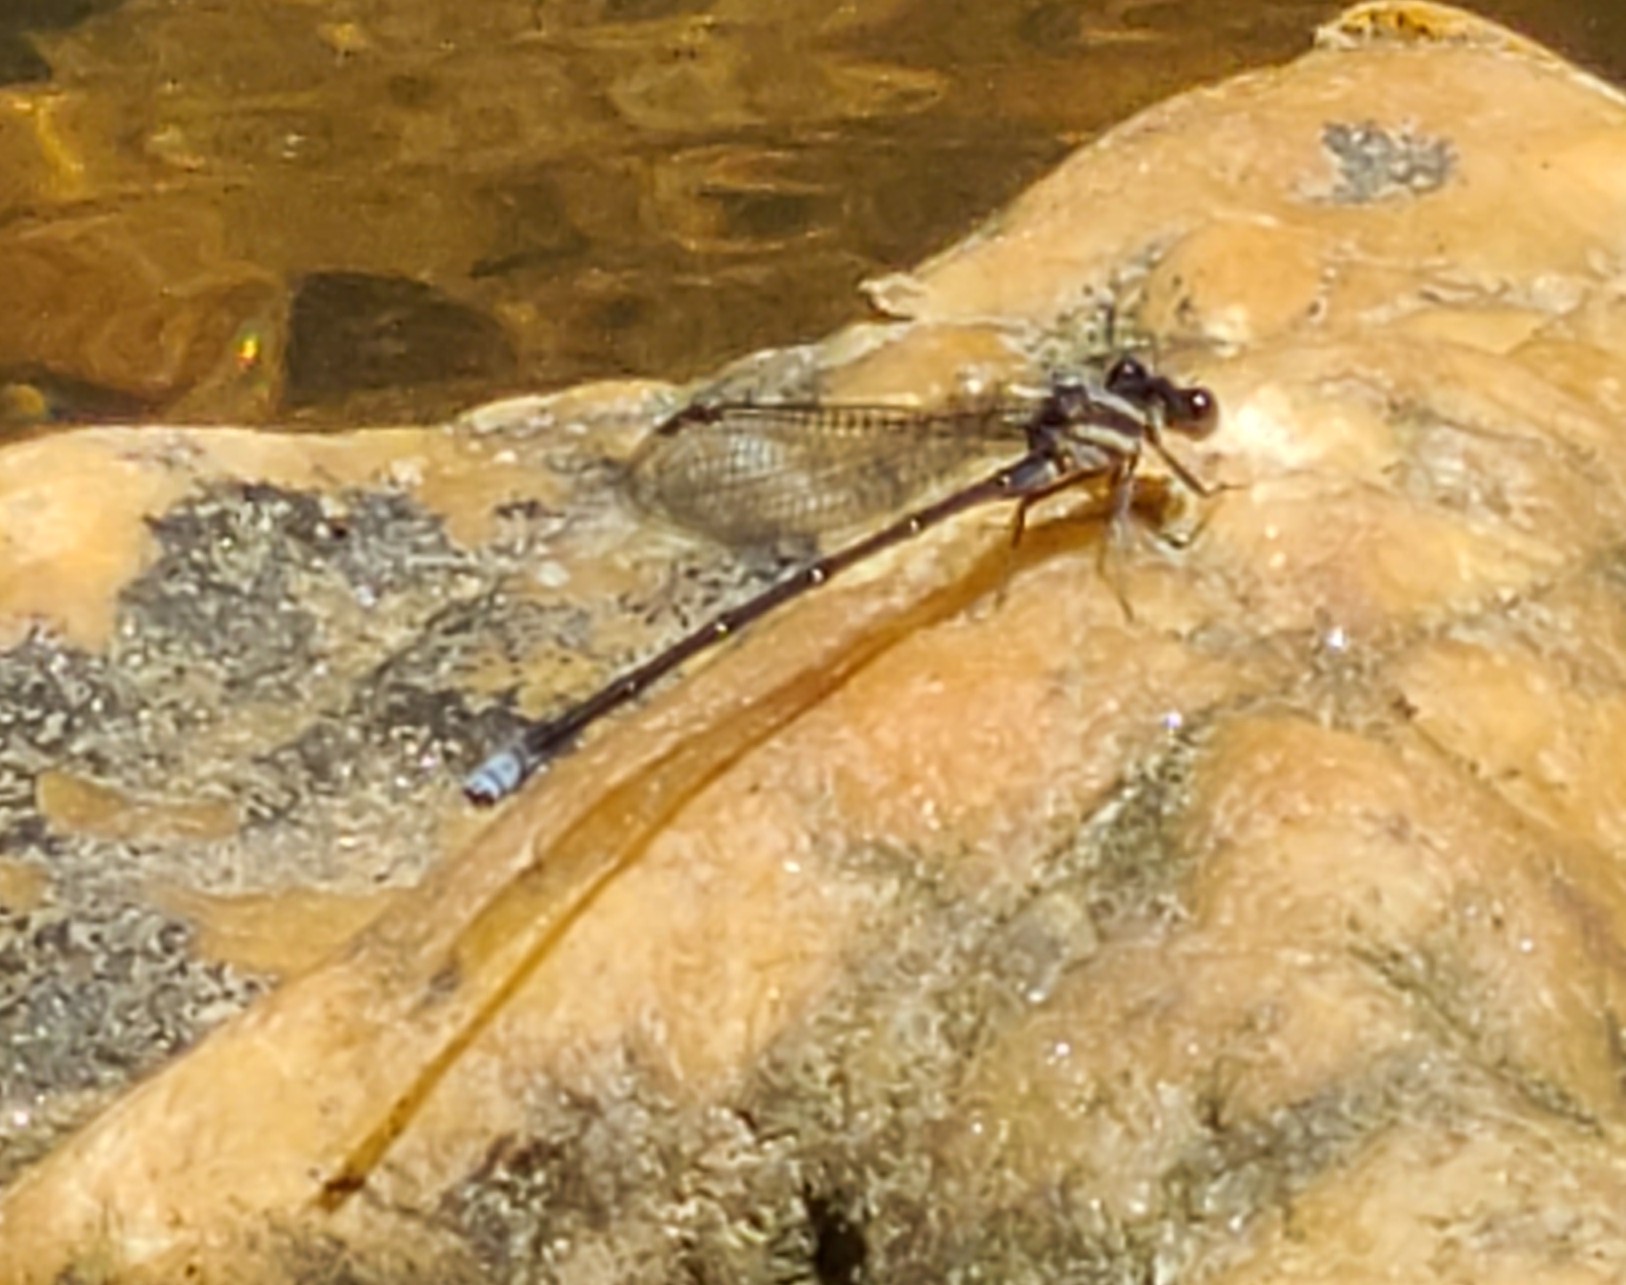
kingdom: Animalia
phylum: Arthropoda
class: Insecta
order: Odonata
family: Coenagrionidae
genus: Argia
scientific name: Argia moesta
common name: Powdered dancer
